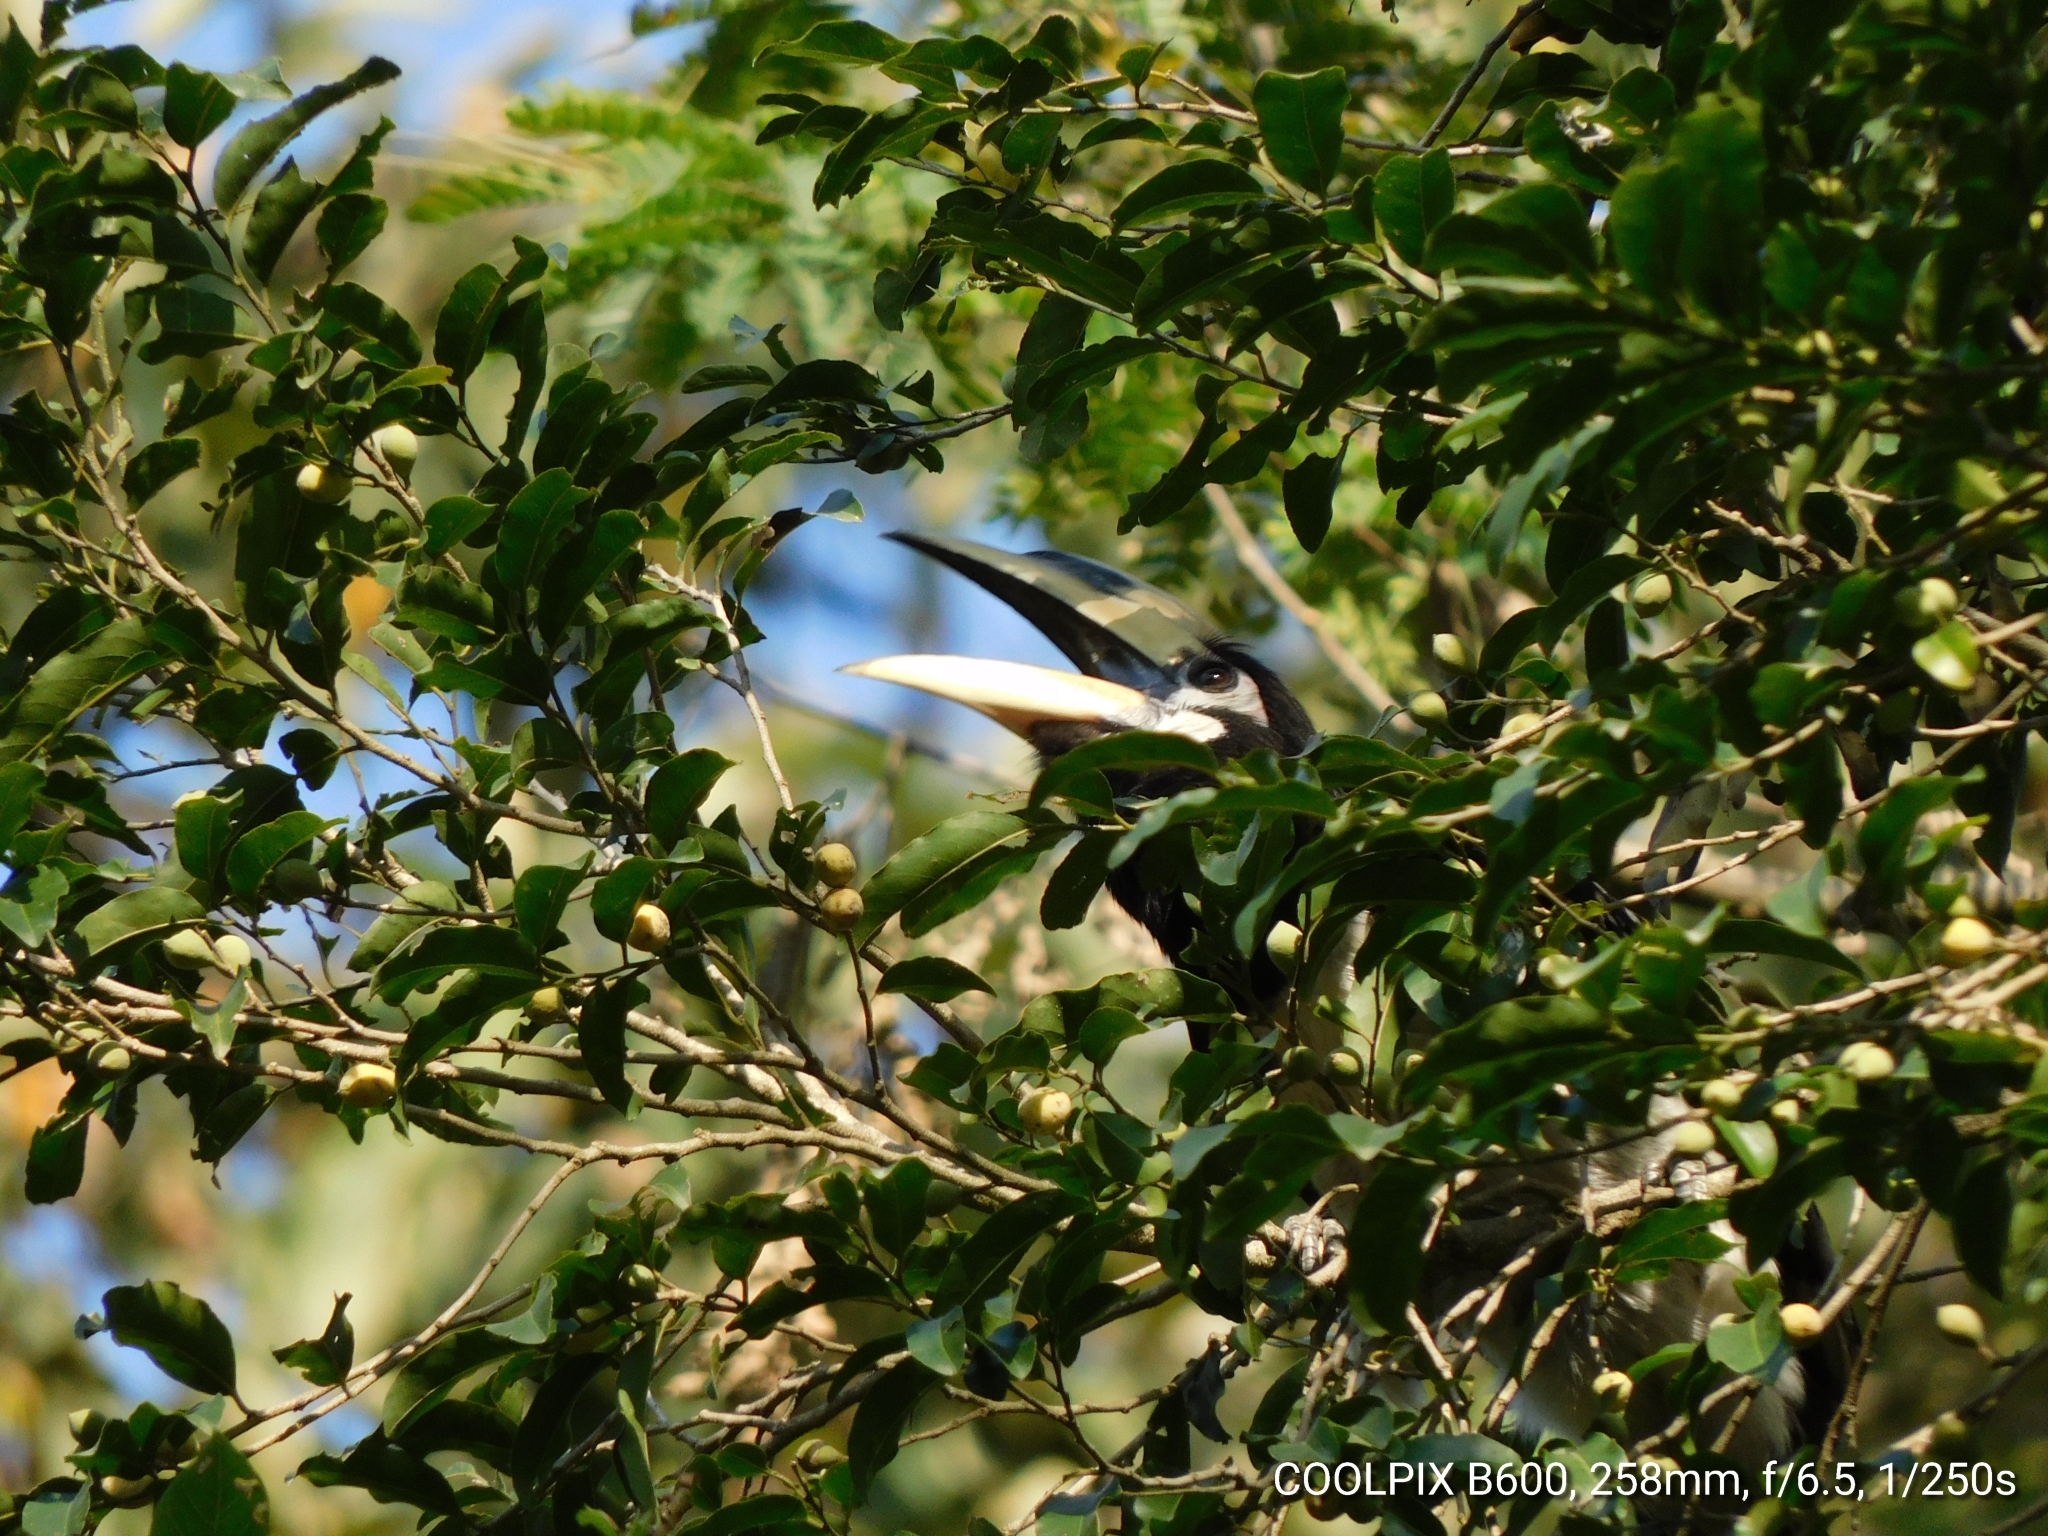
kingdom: Animalia
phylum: Chordata
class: Aves
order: Bucerotiformes
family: Bucerotidae
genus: Anthracoceros
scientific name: Anthracoceros albirostris
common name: Oriental pied-hornbill
